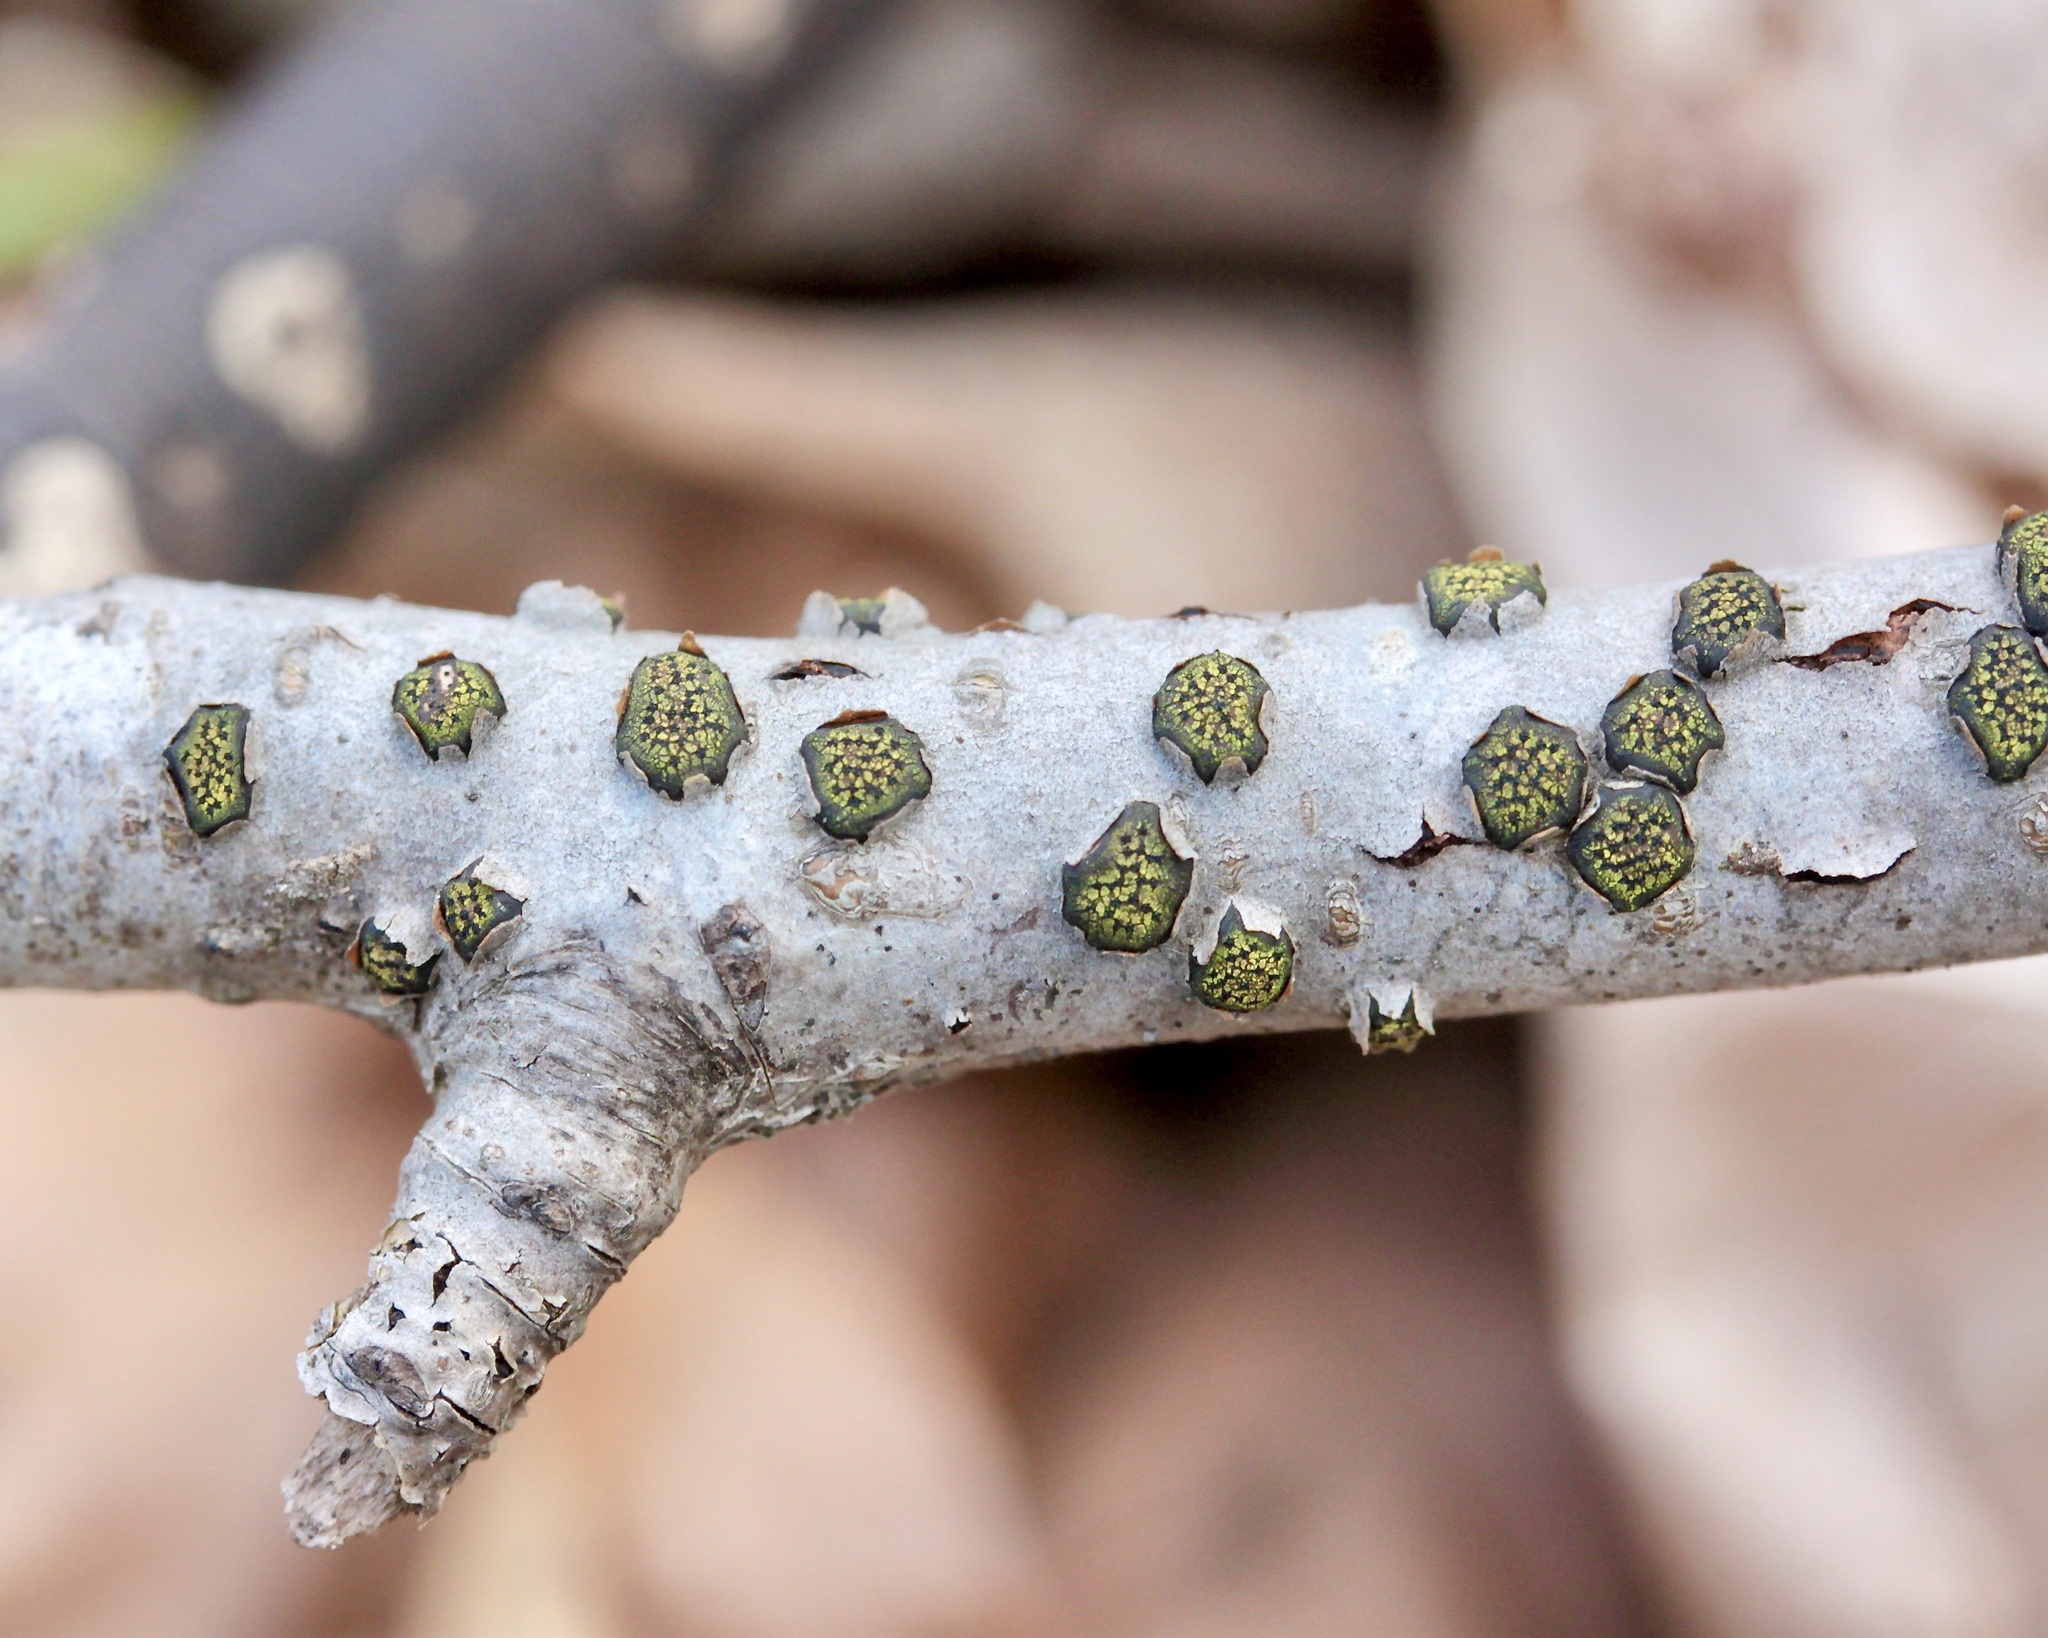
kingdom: Fungi
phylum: Ascomycota
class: Sordariomycetes
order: Xylariales
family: Diatrypaceae
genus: Diatrype
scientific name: Diatrype virescens
